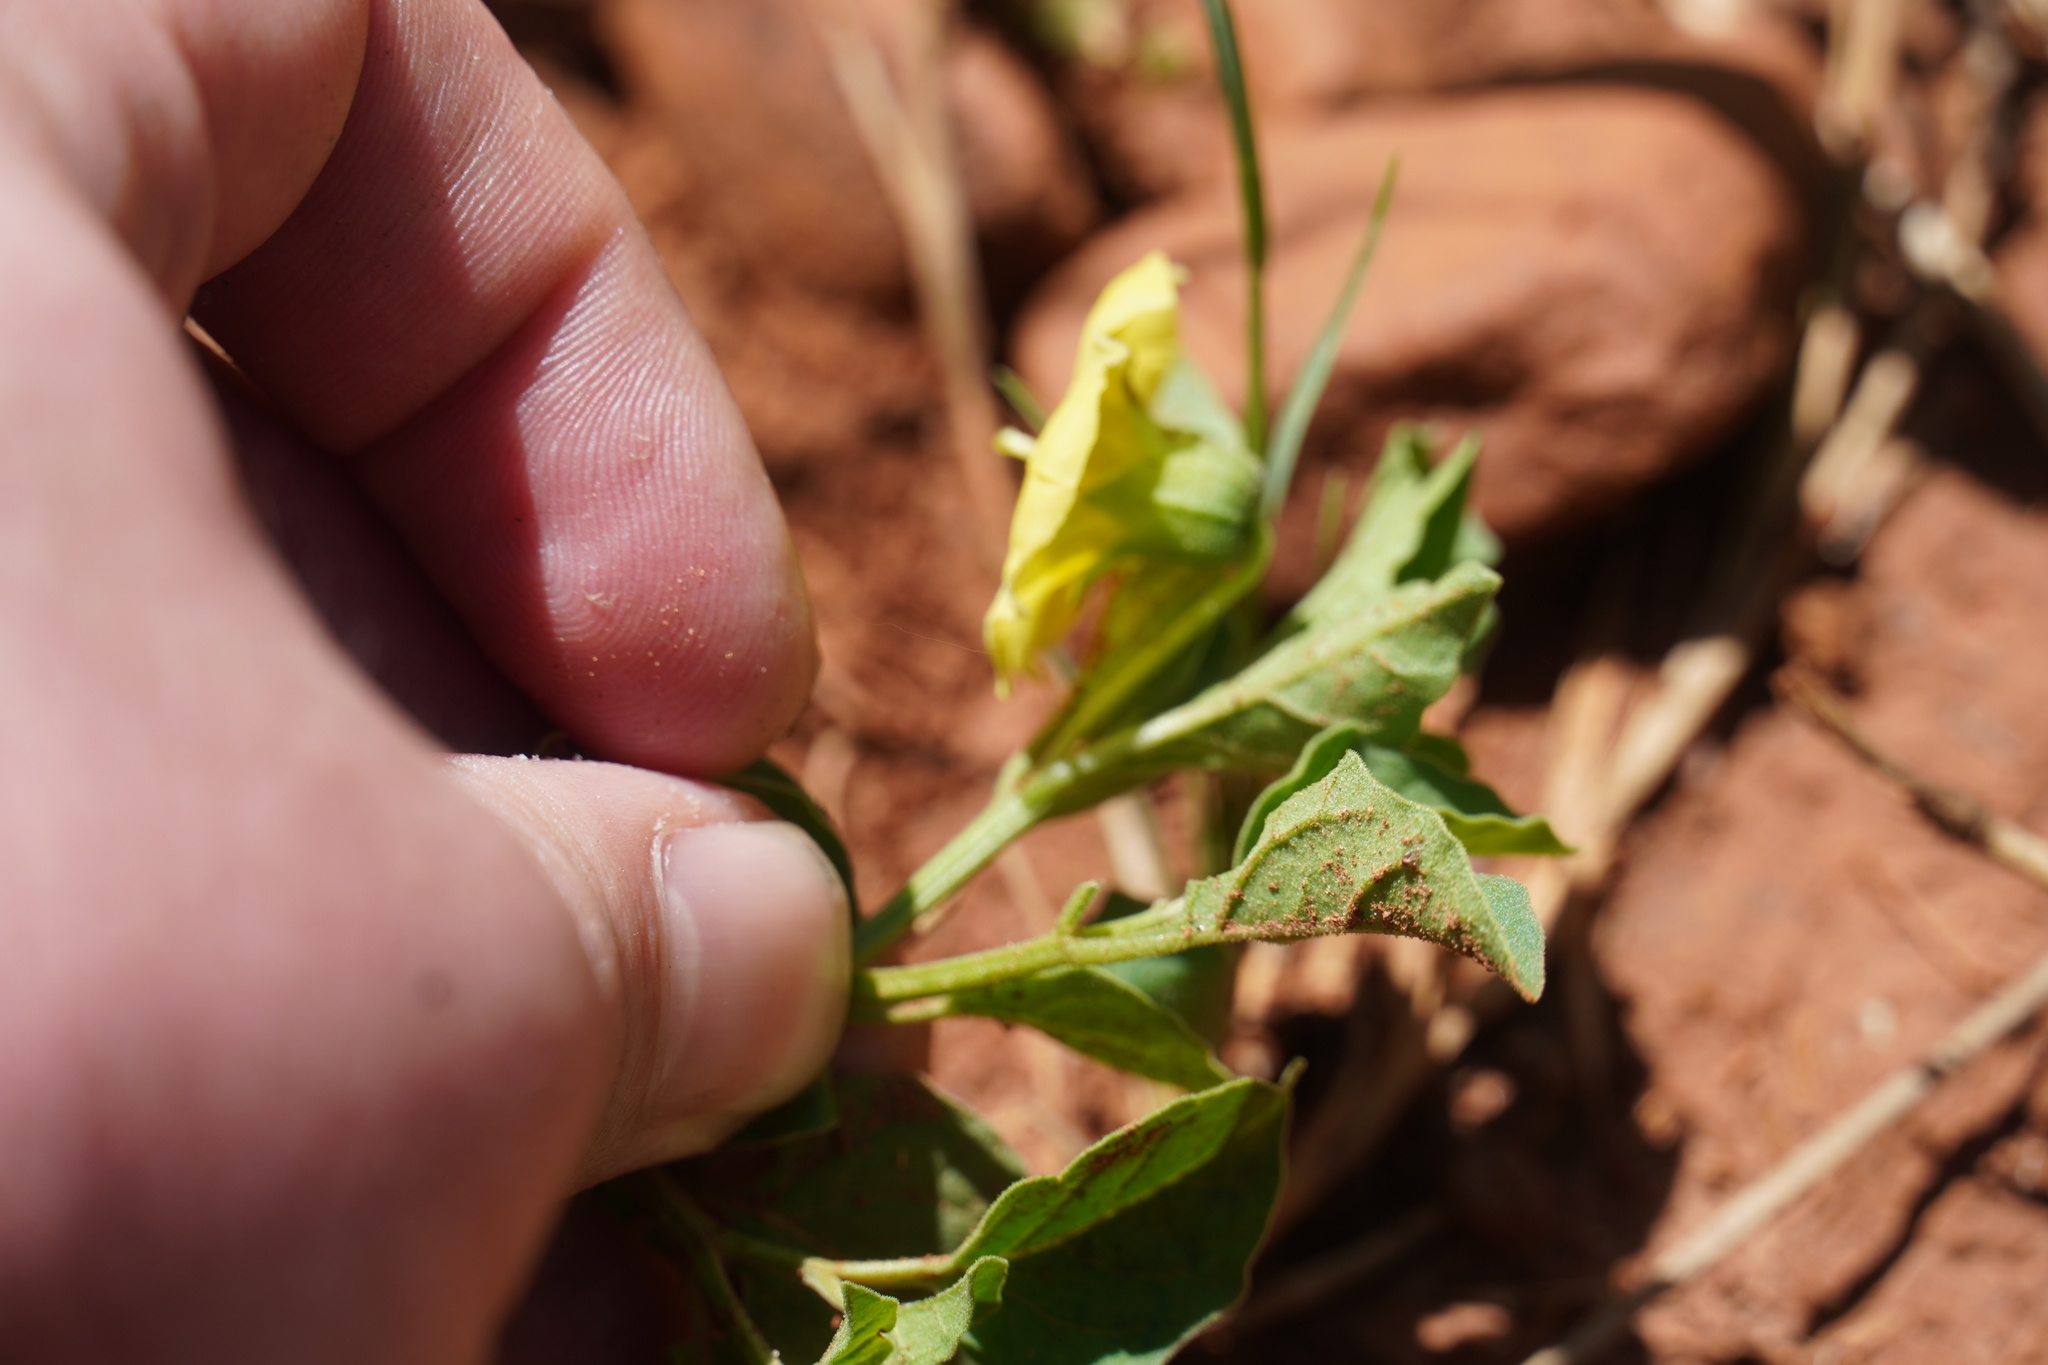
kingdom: Plantae
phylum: Tracheophyta
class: Magnoliopsida
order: Solanales
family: Solanaceae
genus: Physalis
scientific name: Physalis viscosa
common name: Stellate ground-cherry
